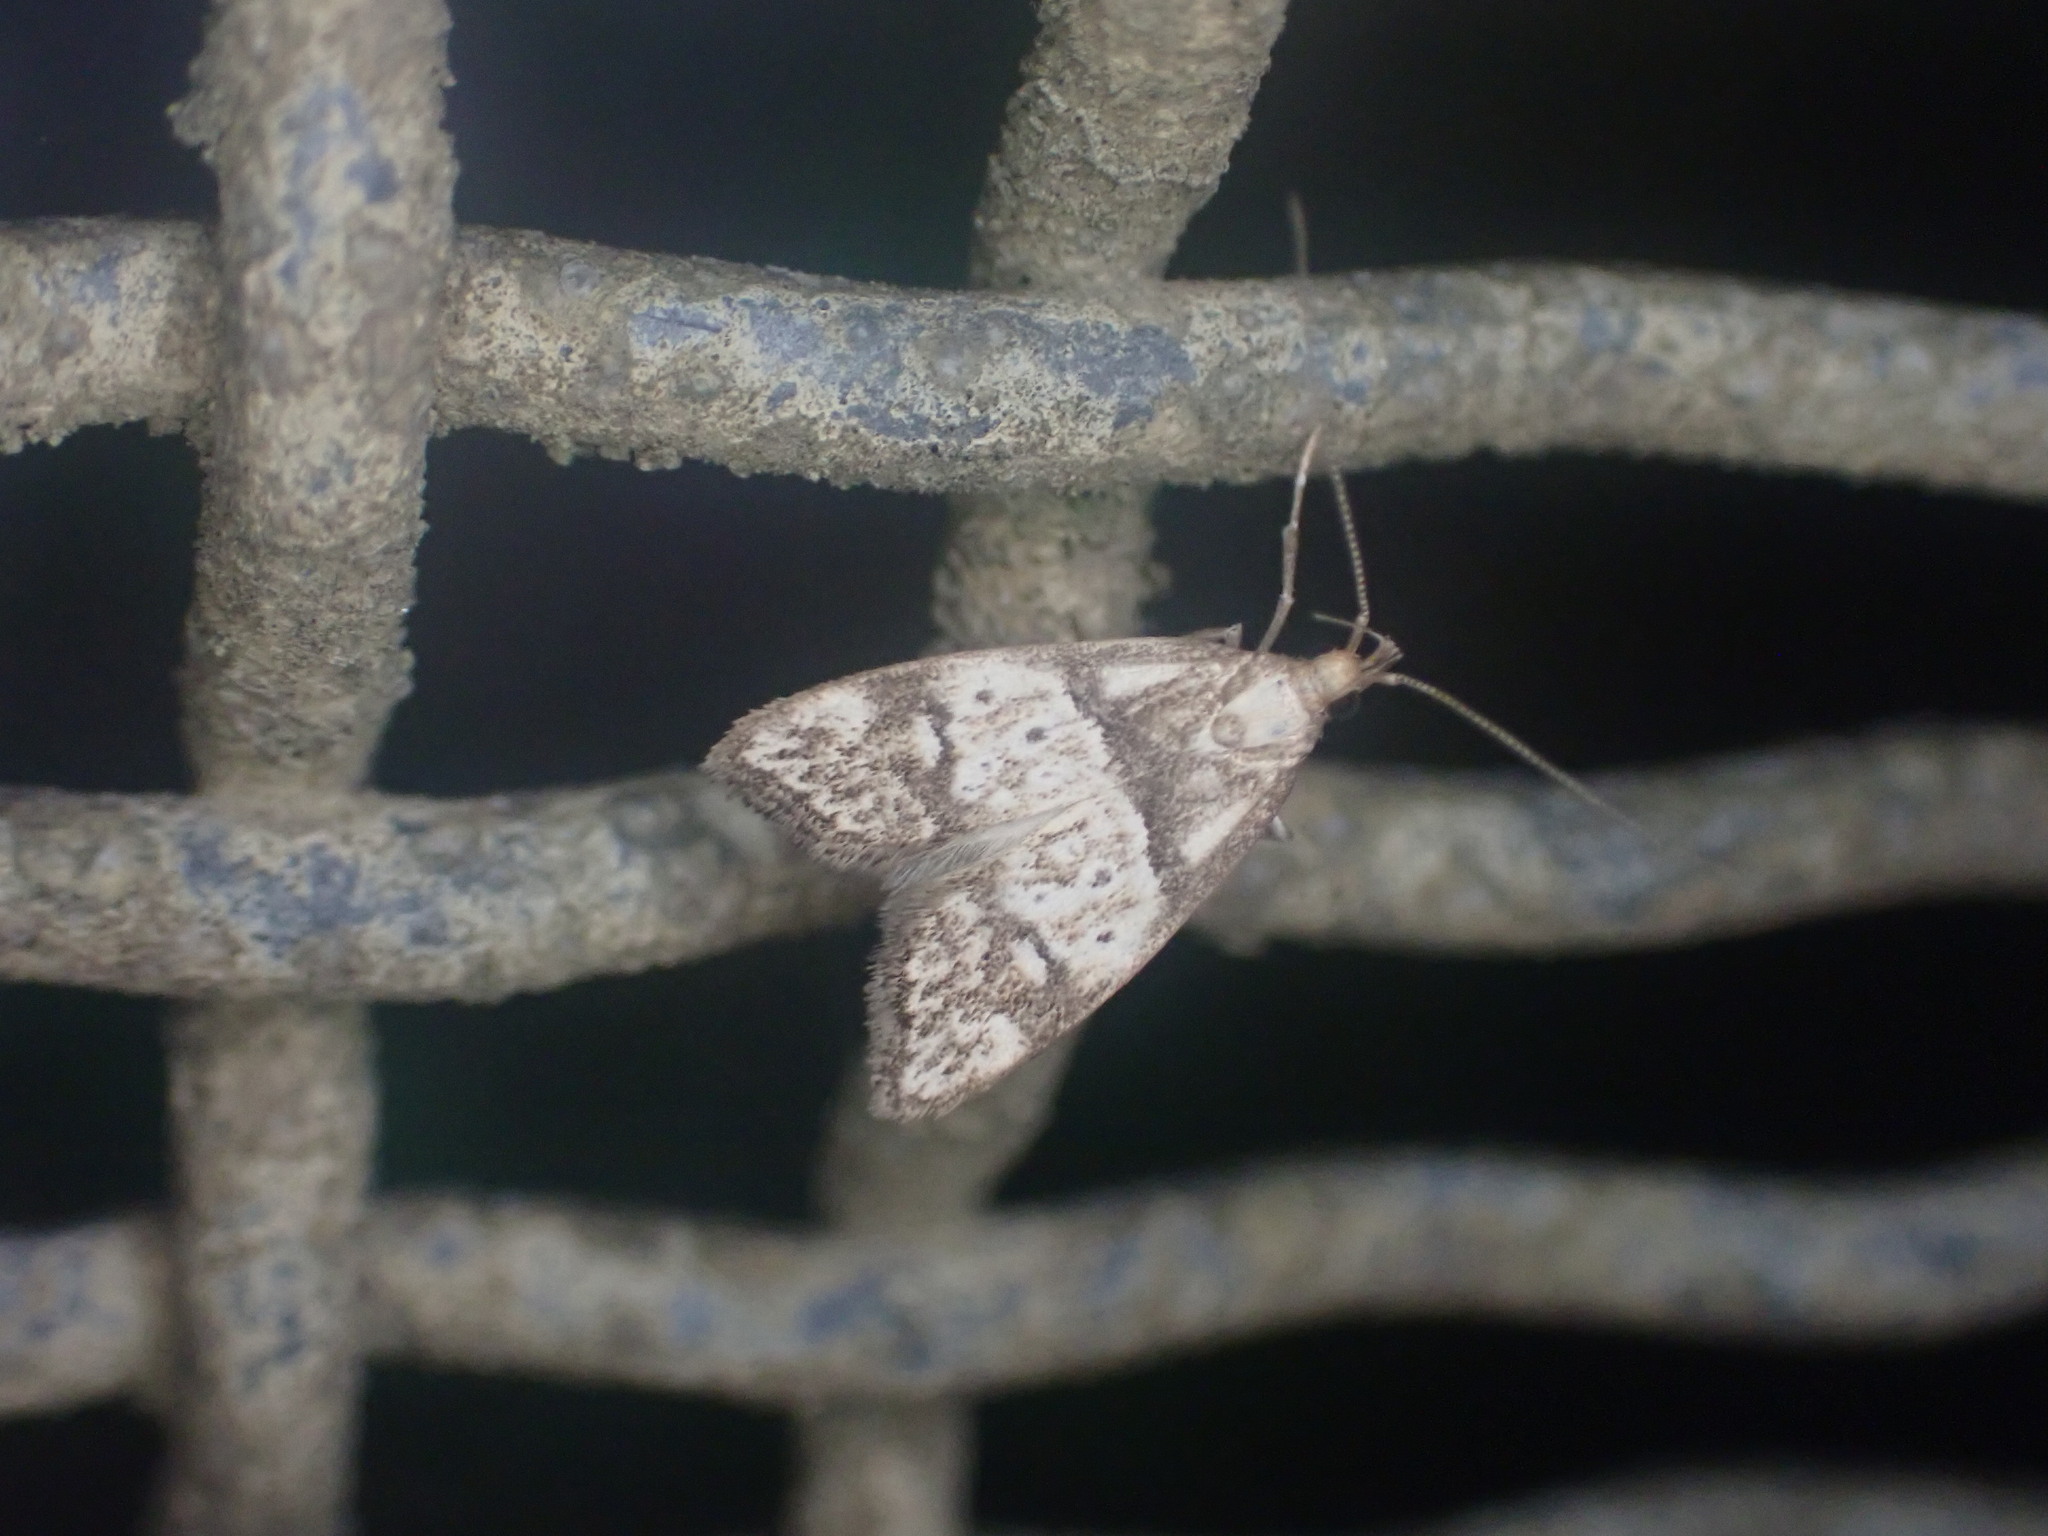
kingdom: Animalia
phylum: Arthropoda
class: Insecta
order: Lepidoptera
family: Oecophoridae
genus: Gymnobathra
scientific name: Gymnobathra hamatella
